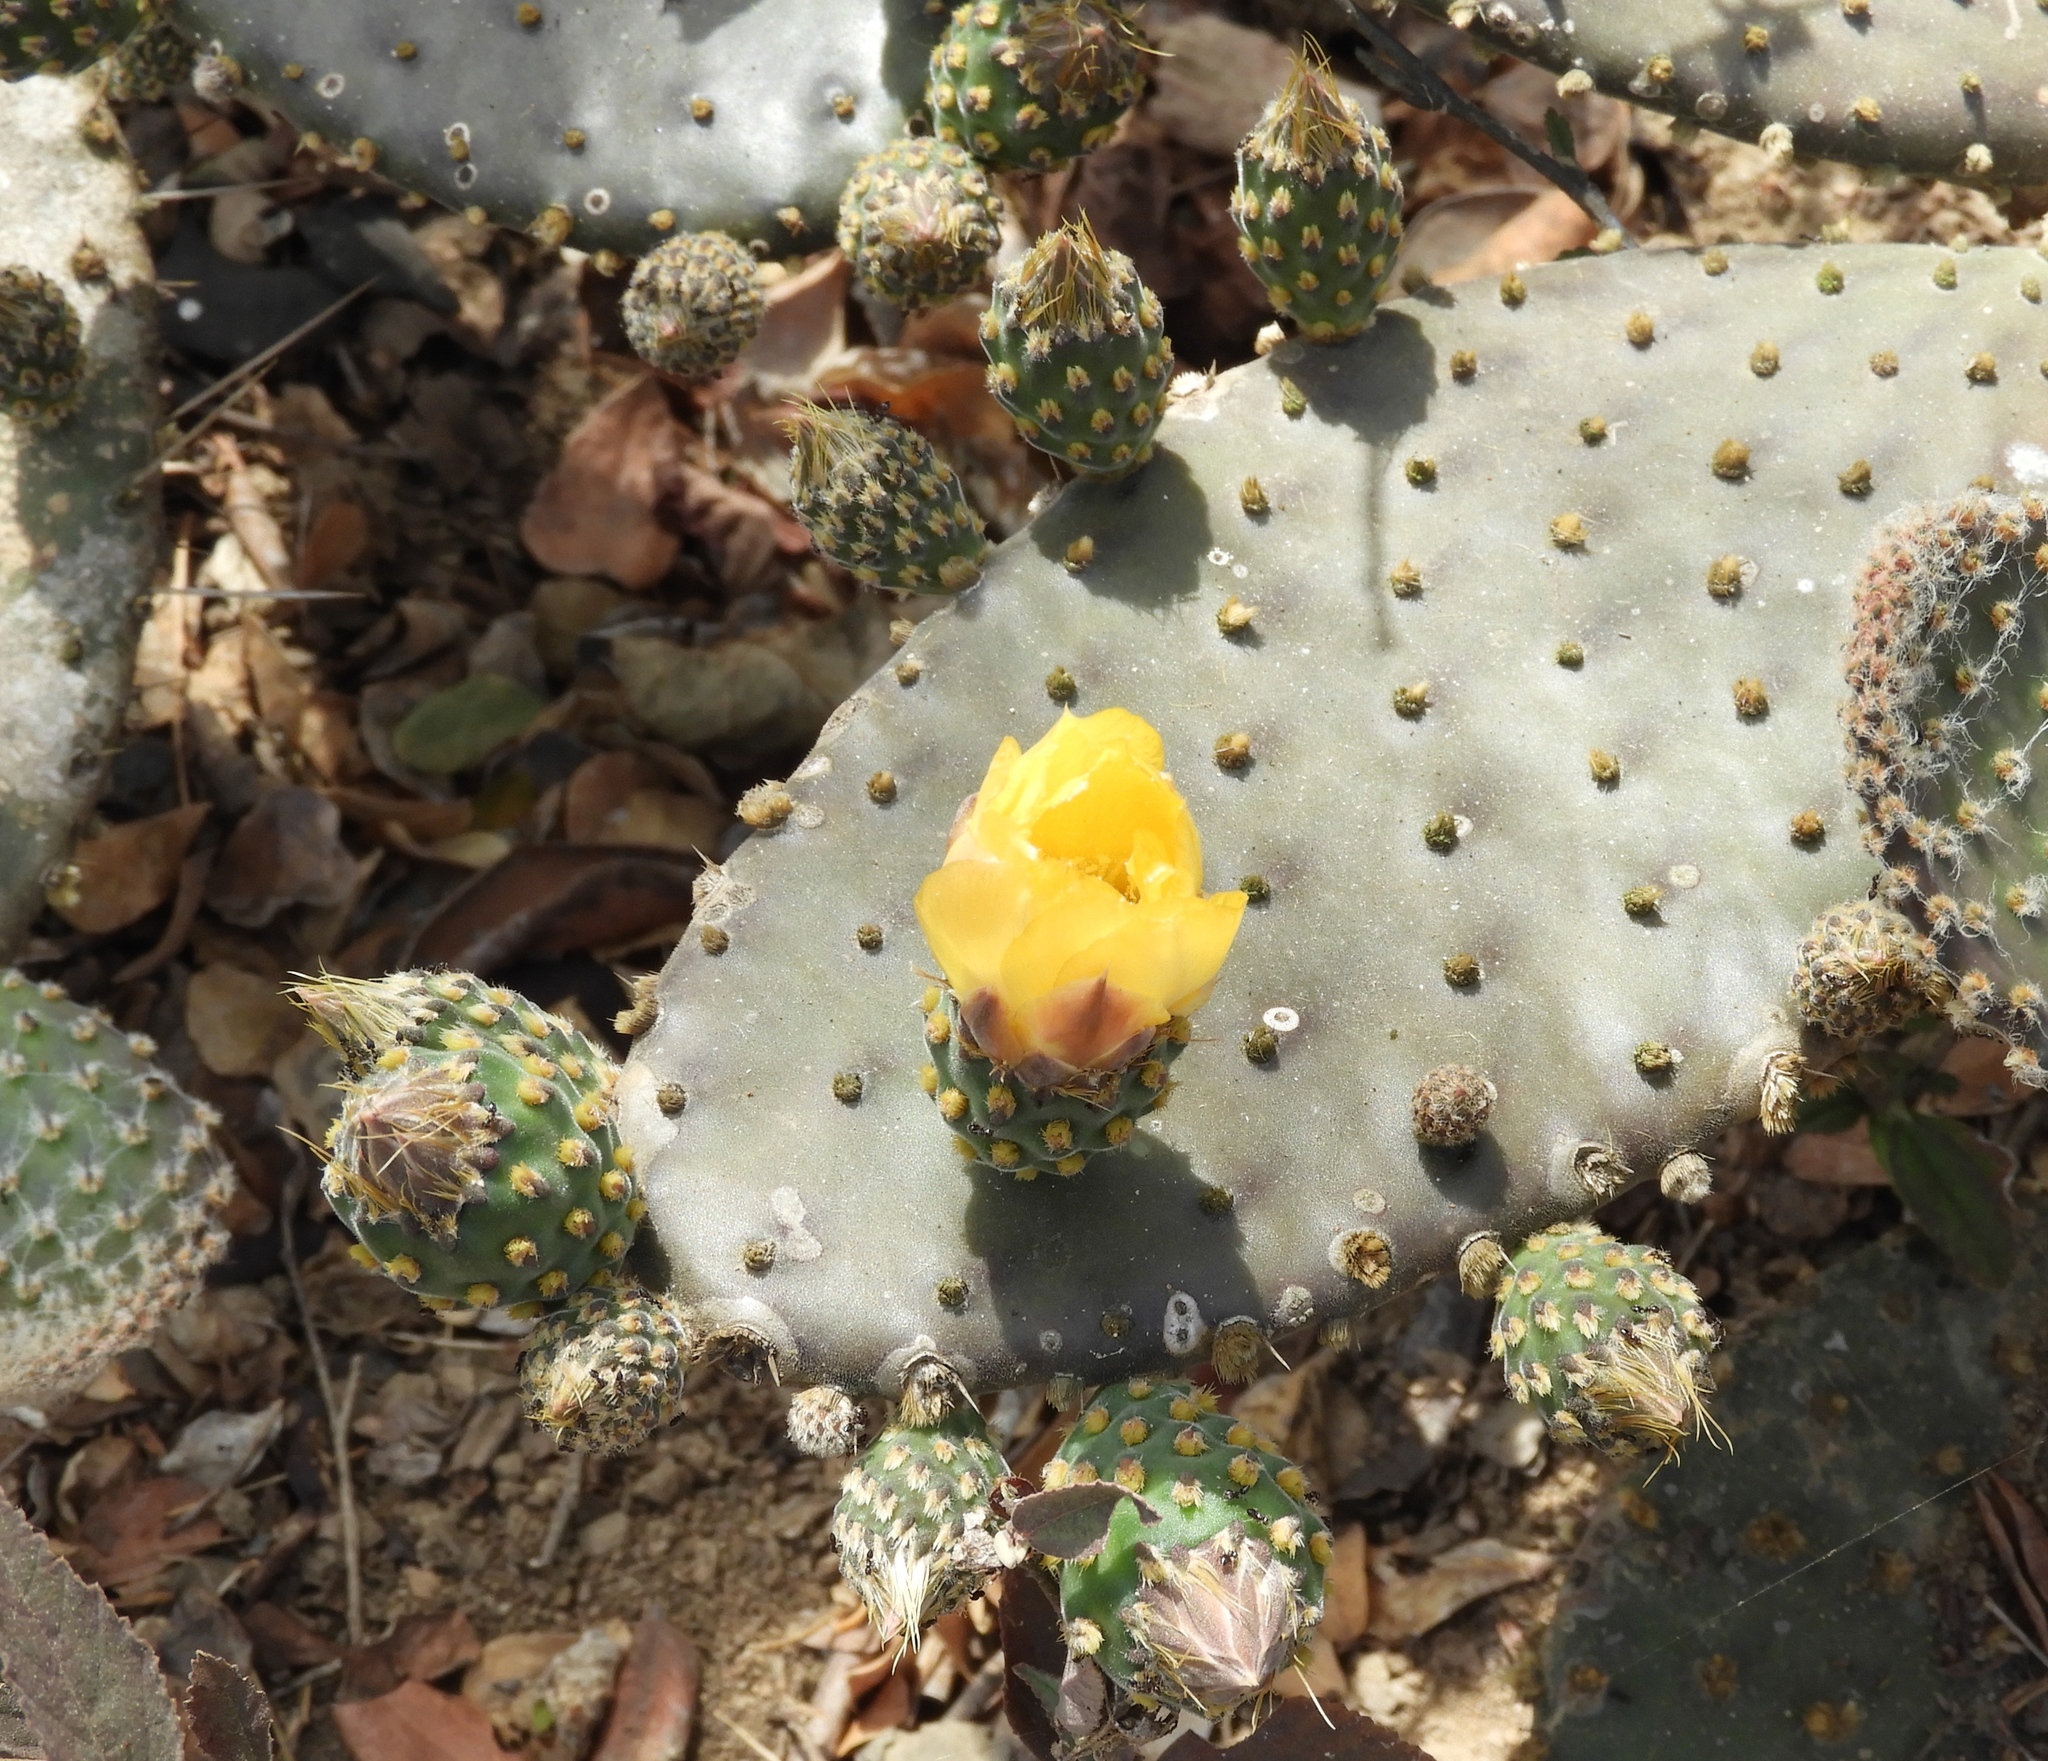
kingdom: Plantae
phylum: Tracheophyta
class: Magnoliopsida
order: Caryophyllales
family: Cactaceae
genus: Opuntia
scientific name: Opuntia decumbens
